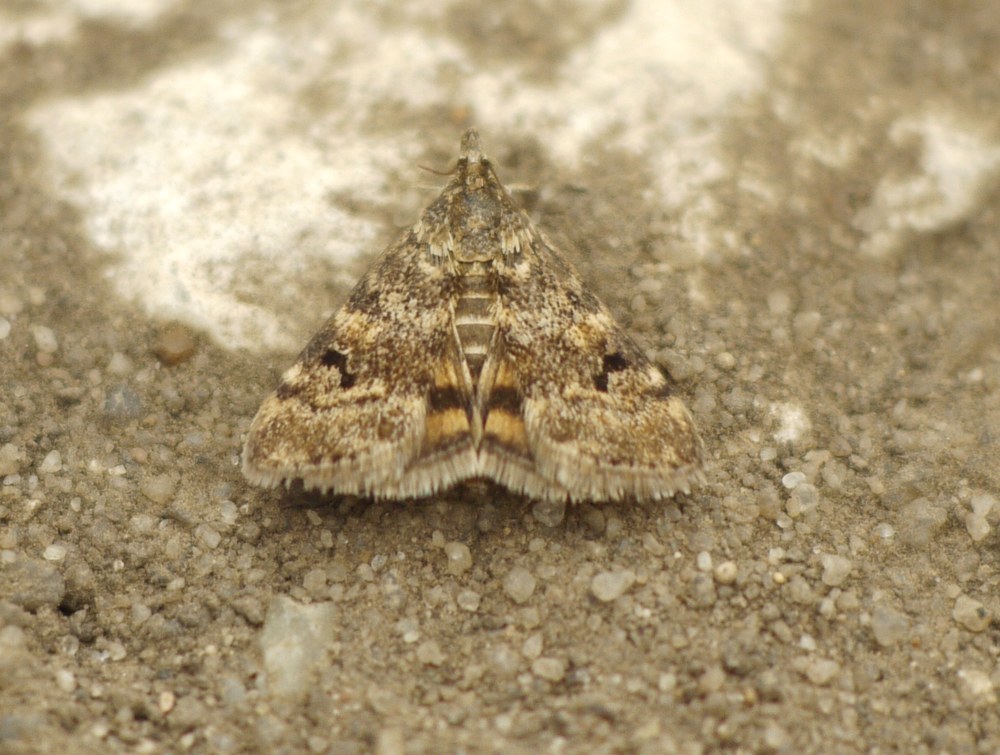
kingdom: Animalia
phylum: Arthropoda
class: Insecta
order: Lepidoptera
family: Crambidae
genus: Noctuelia
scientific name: Noctuelia Aporodes floralis
